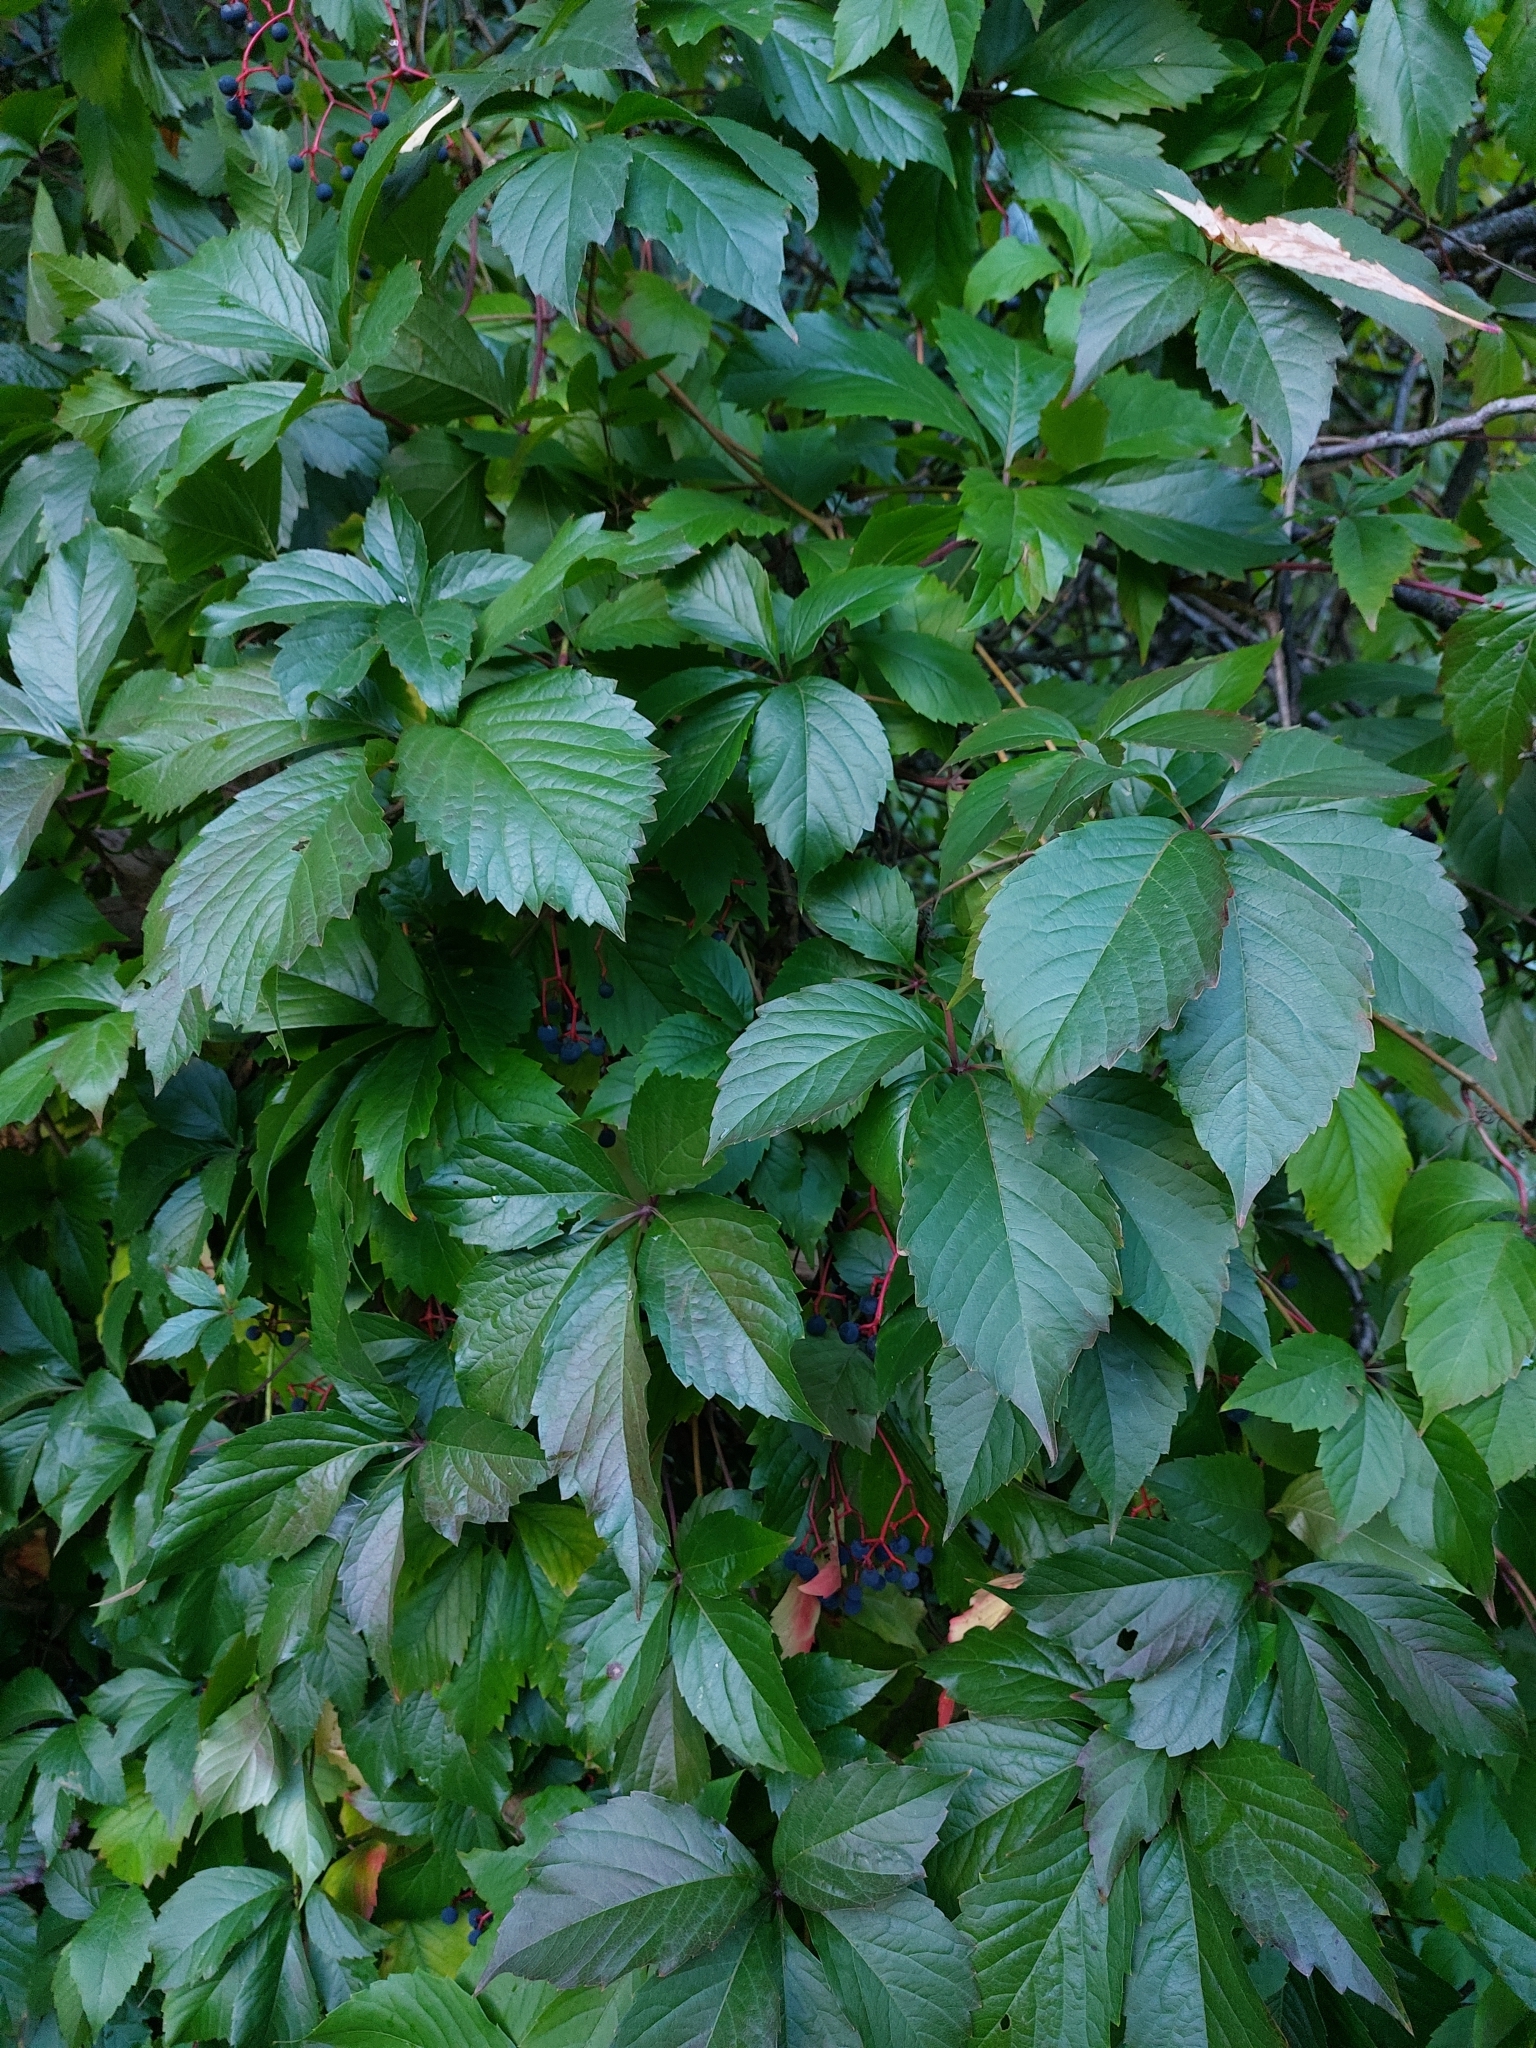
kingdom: Plantae
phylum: Tracheophyta
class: Magnoliopsida
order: Vitales
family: Vitaceae
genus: Parthenocissus
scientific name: Parthenocissus inserta
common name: False virginia-creeper
